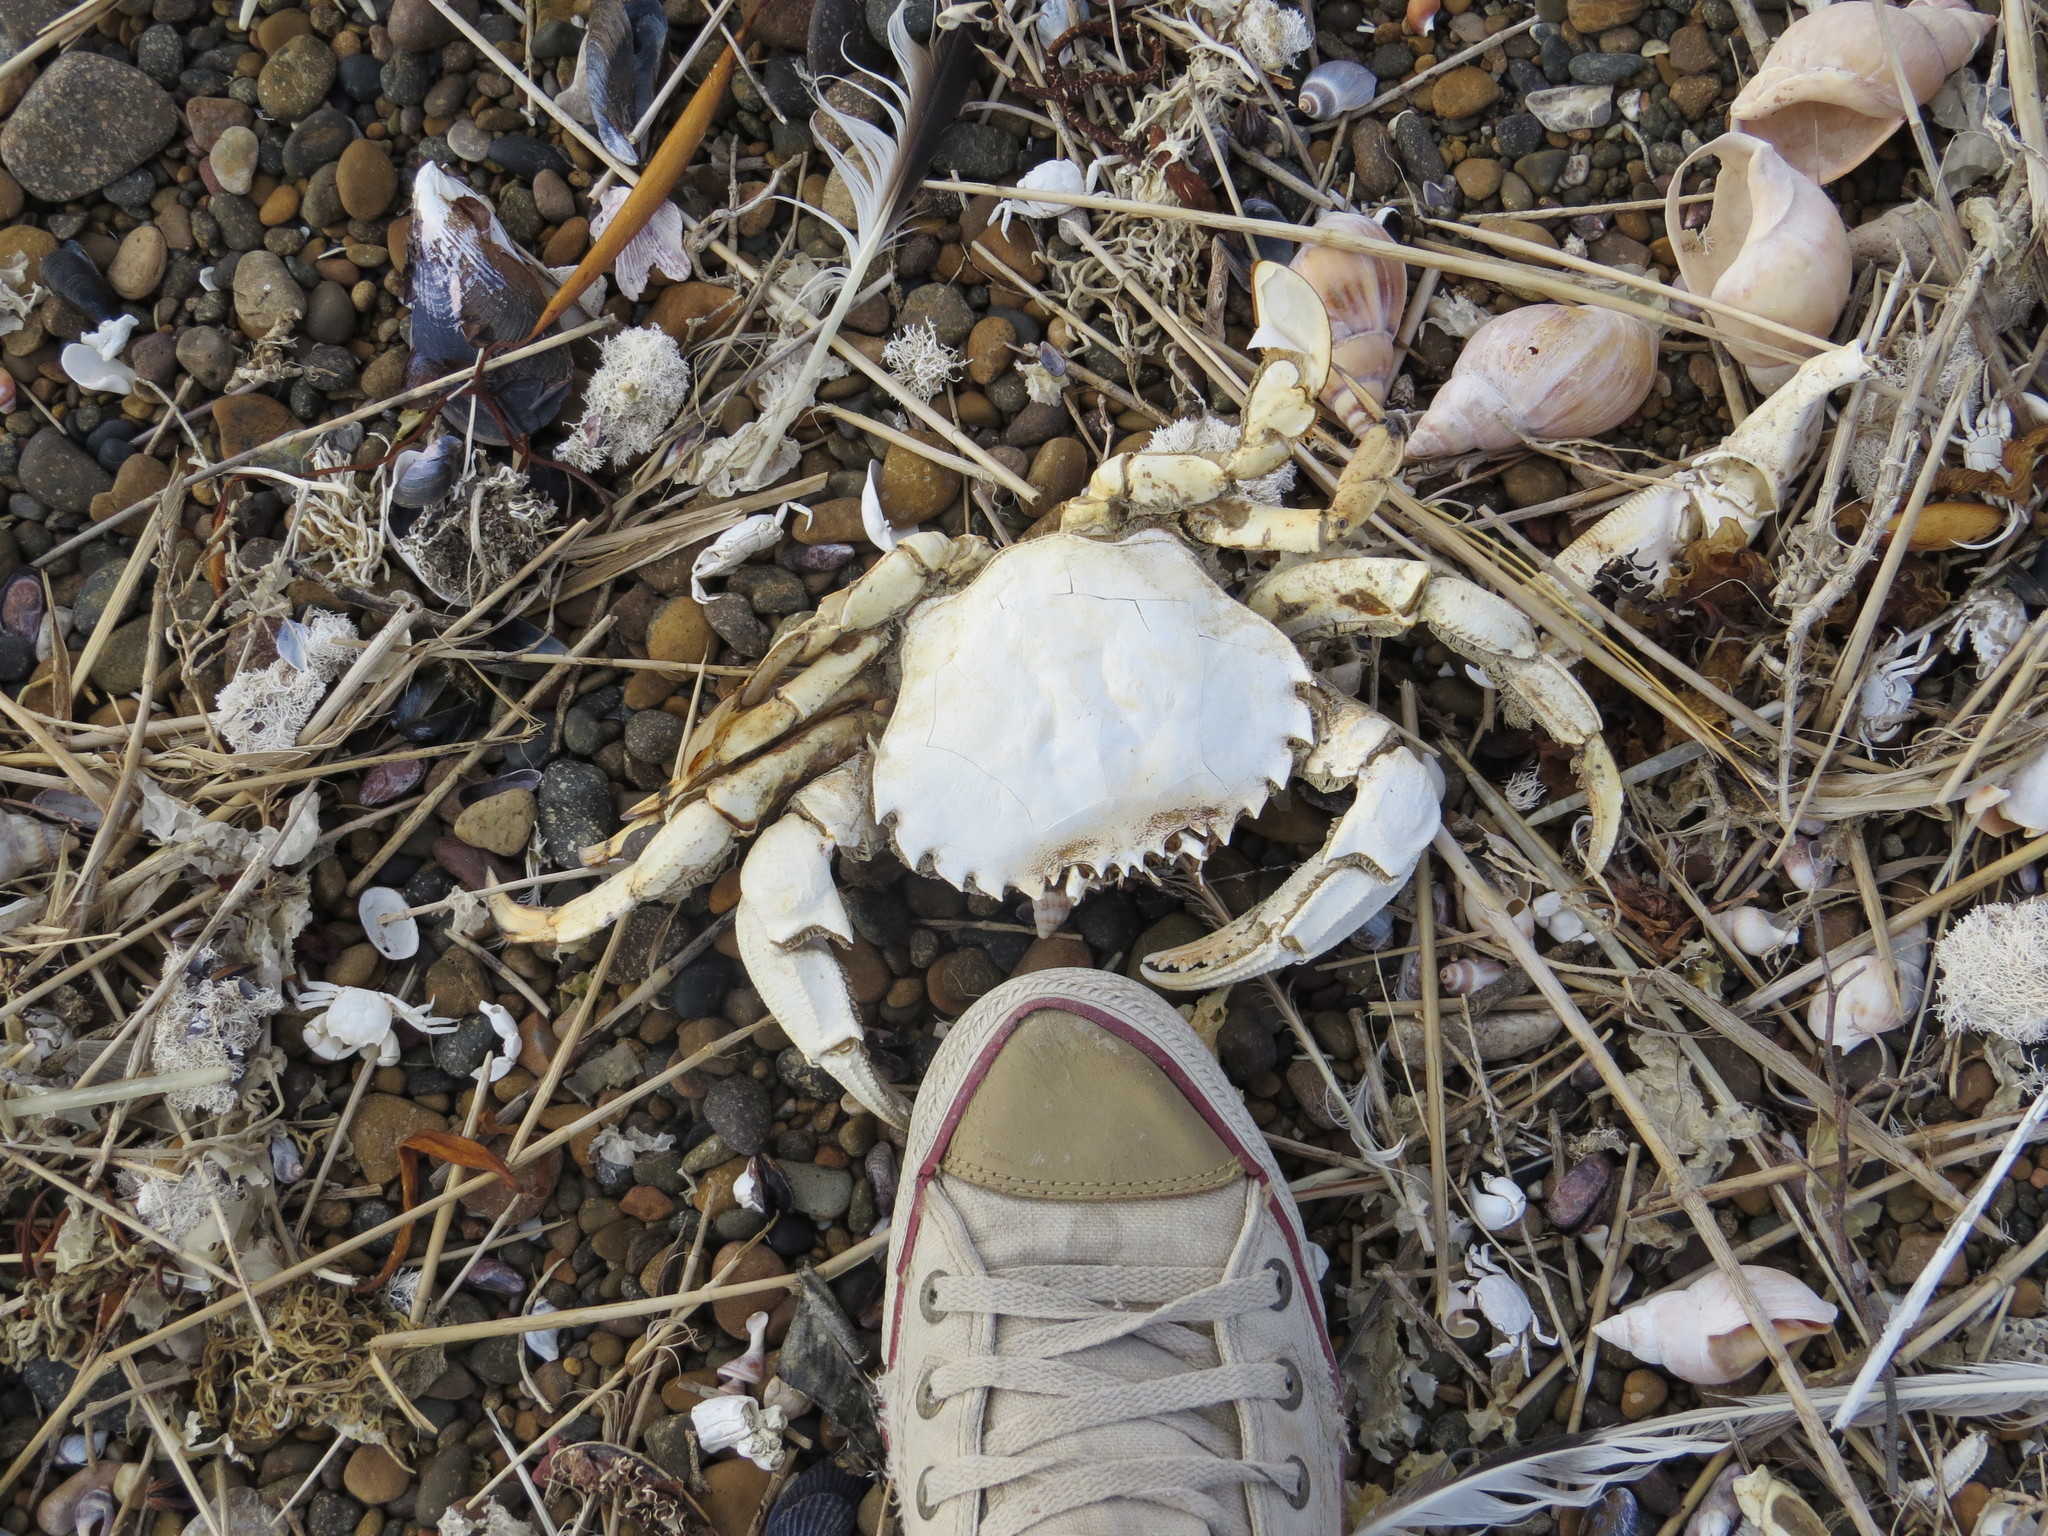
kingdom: Animalia
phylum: Arthropoda
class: Malacostraca
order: Decapoda
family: Ovalipidae
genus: Ovalipes
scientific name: Ovalipes trimaculatus
